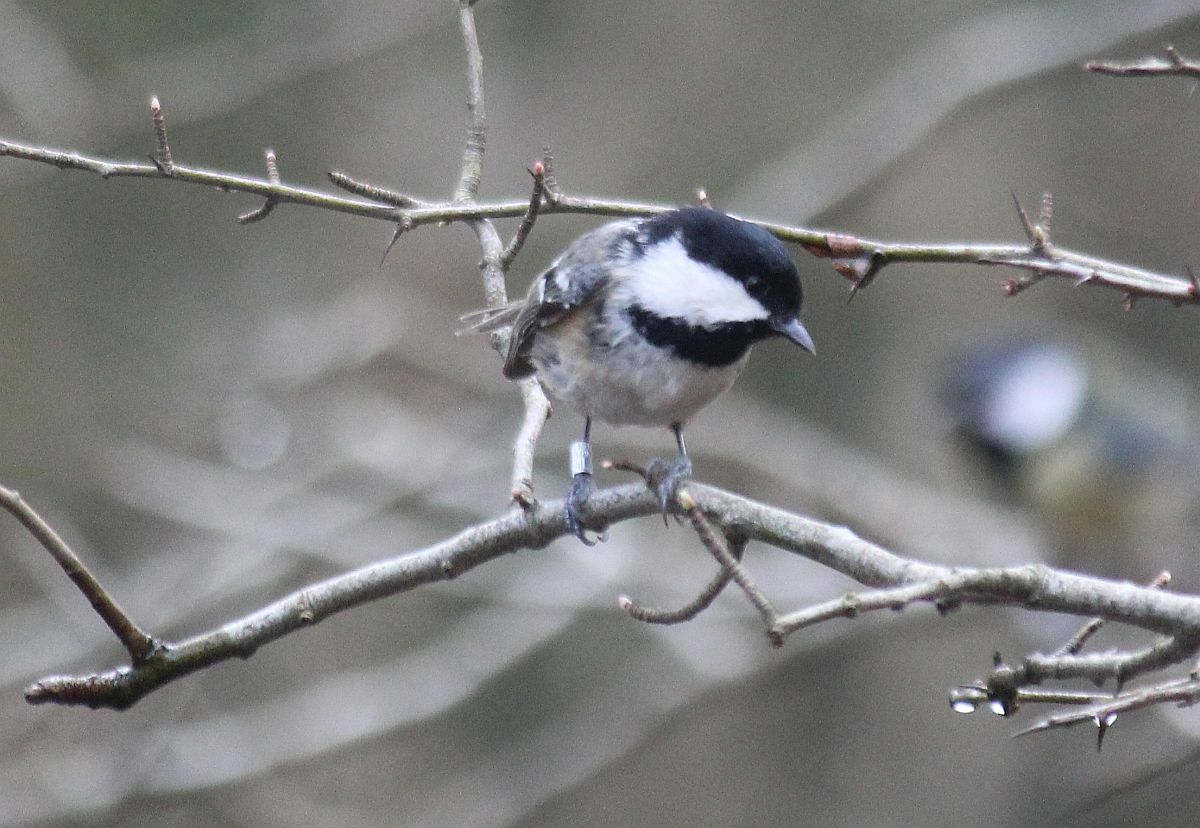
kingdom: Animalia
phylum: Chordata
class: Aves
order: Passeriformes
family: Paridae
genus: Periparus
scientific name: Periparus ater
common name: Coal tit
